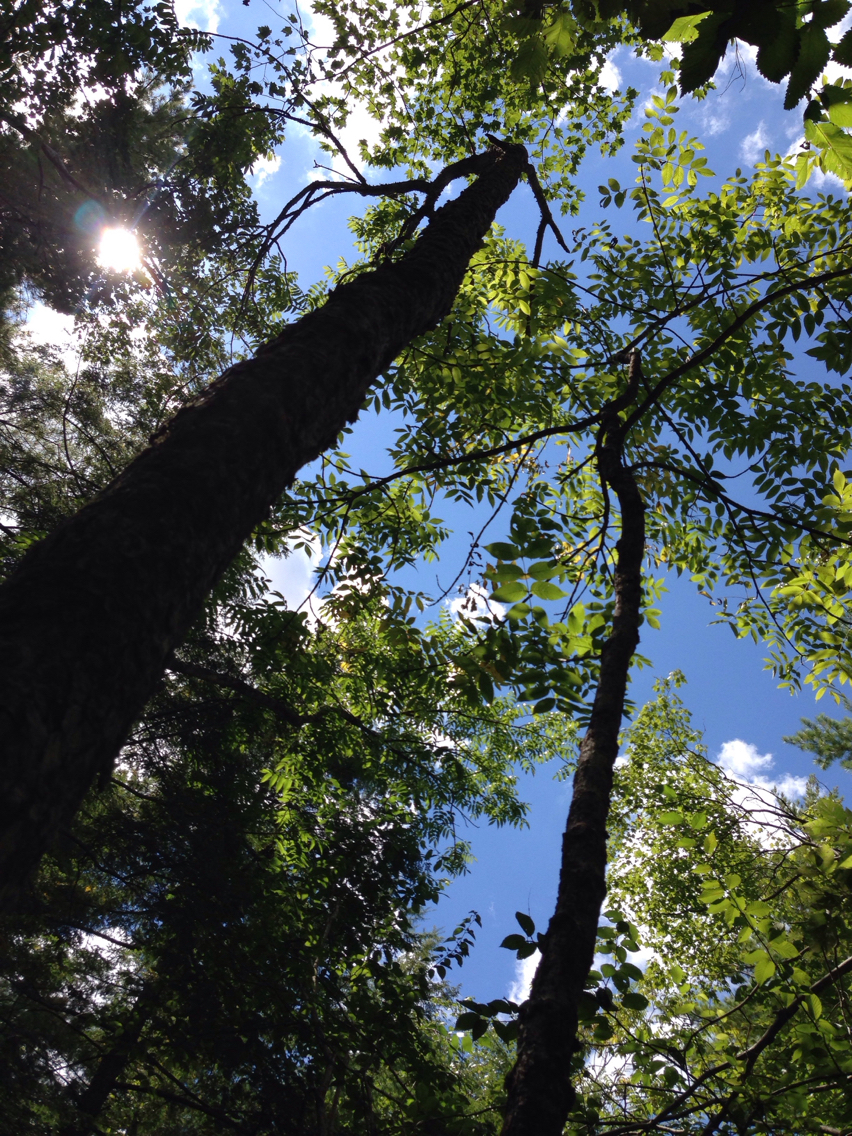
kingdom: Plantae
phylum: Tracheophyta
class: Magnoliopsida
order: Lamiales
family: Oleaceae
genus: Fraxinus
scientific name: Fraxinus nigra
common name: Black ash
